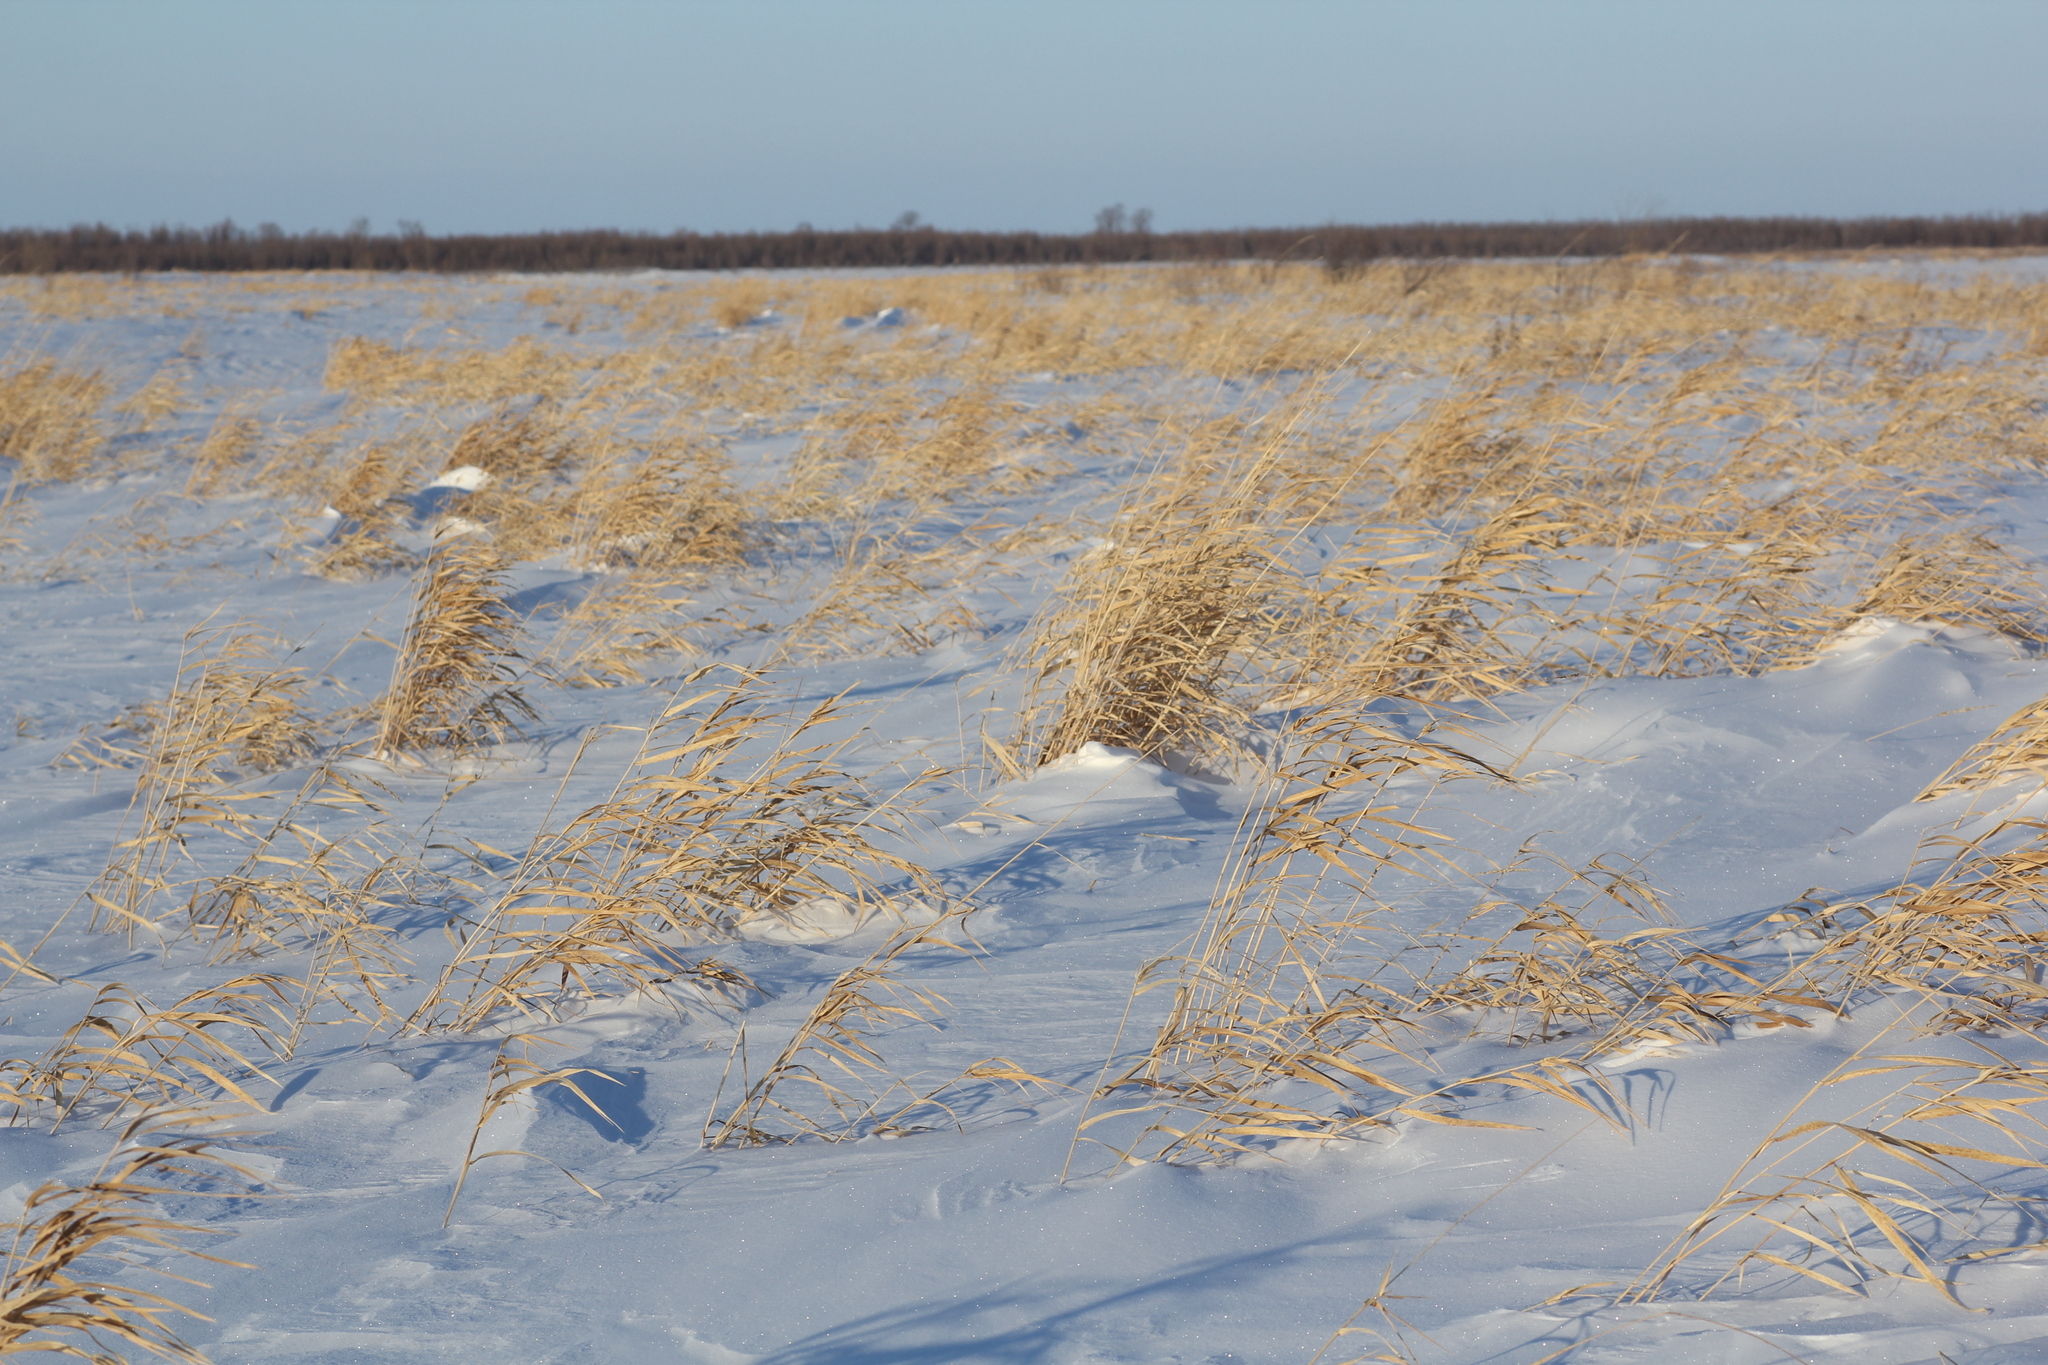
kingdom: Plantae
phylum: Tracheophyta
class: Liliopsida
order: Poales
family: Poaceae
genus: Phalaris
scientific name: Phalaris arundinacea
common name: Reed canary-grass
